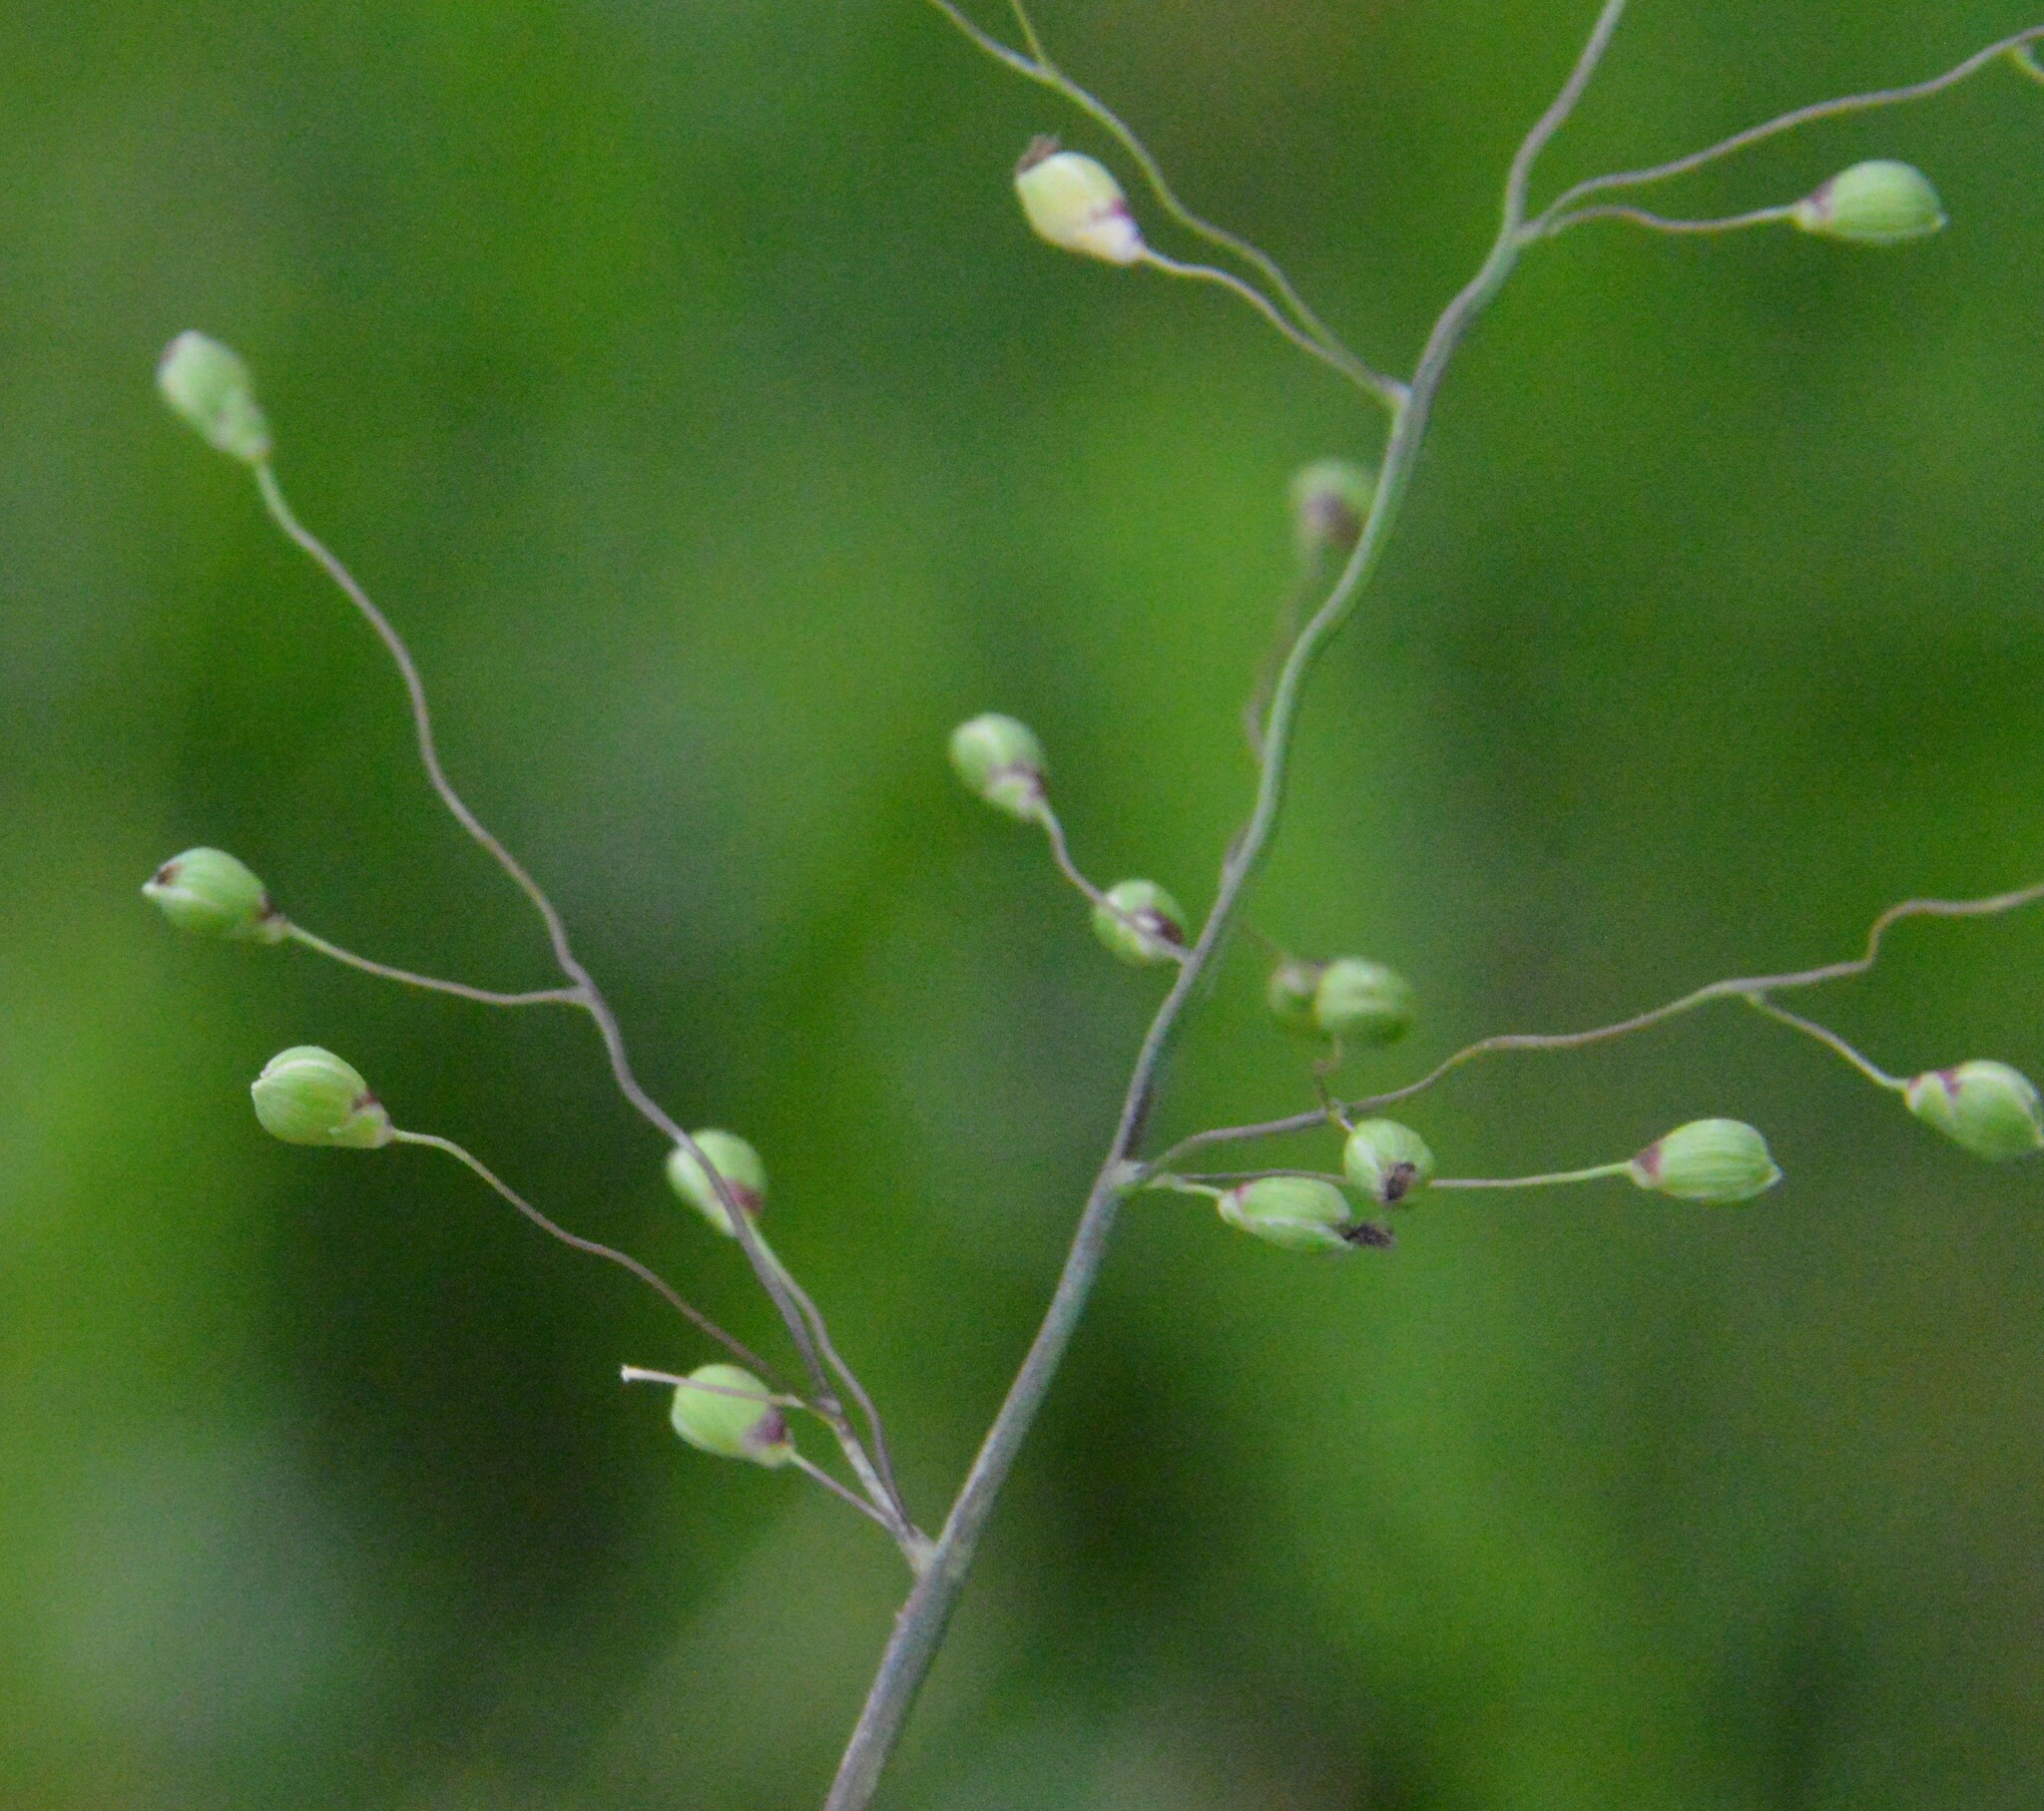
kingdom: Plantae
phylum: Tracheophyta
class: Liliopsida
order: Poales
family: Poaceae
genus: Dichanthelium
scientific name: Dichanthelium scribnerianum
